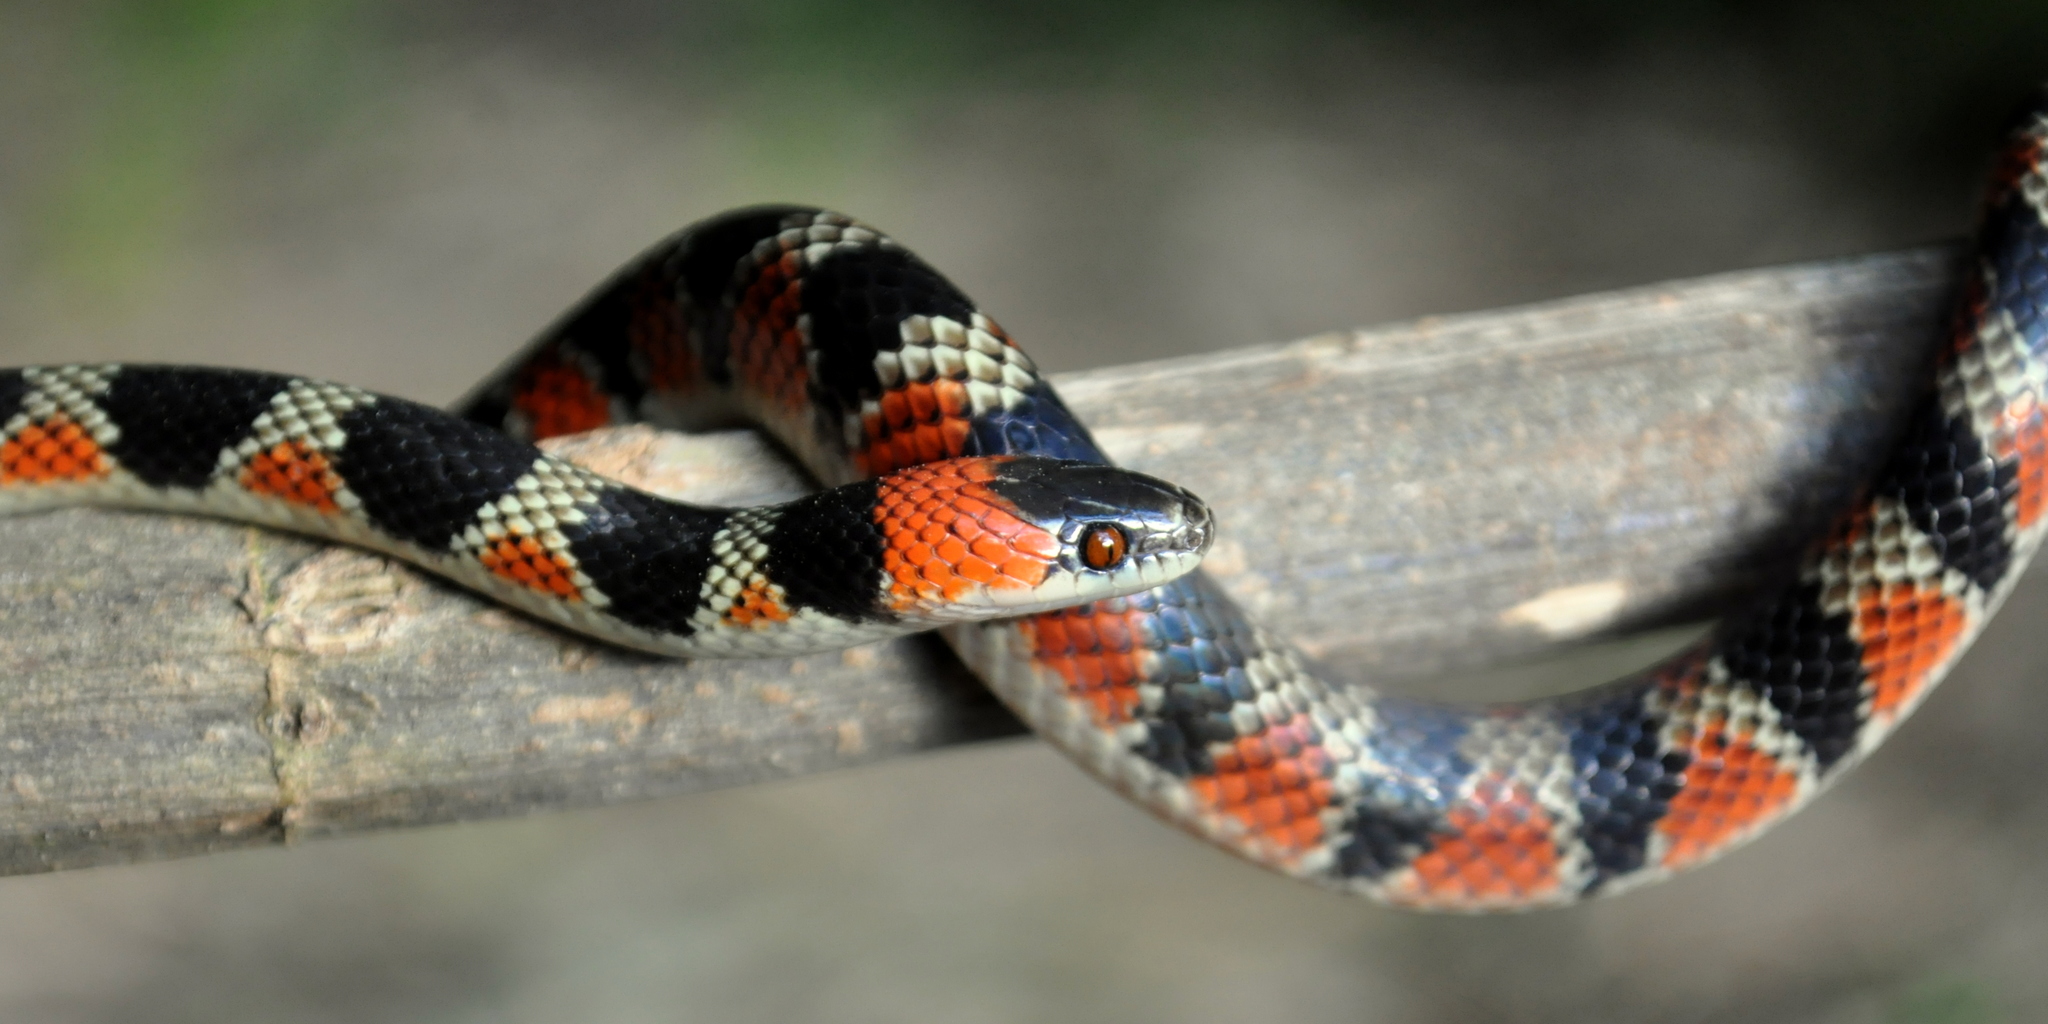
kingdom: Animalia
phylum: Chordata
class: Squamata
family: Colubridae
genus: Oxyrhopus
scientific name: Oxyrhopus rhombifer
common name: Amazon false coral snake
